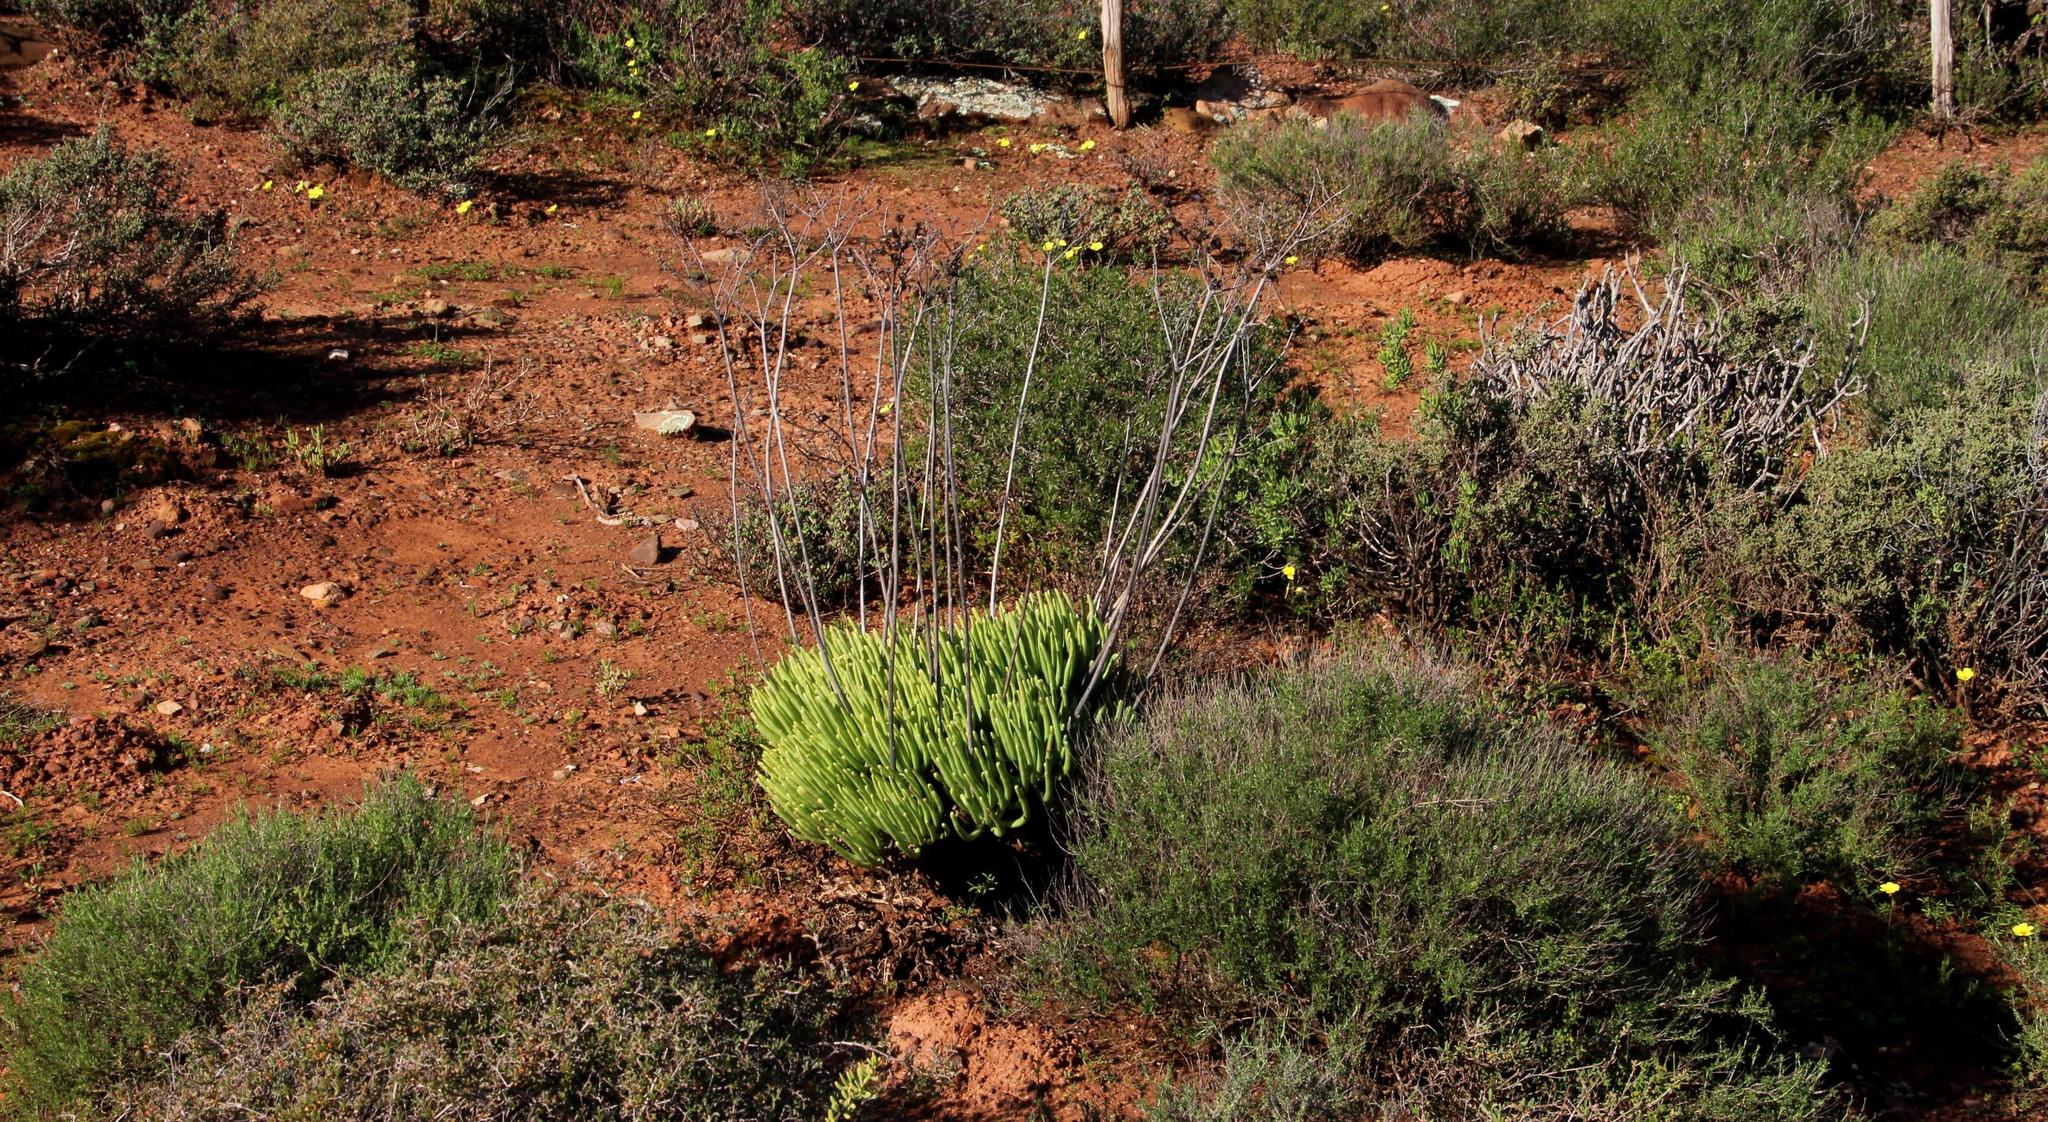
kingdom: Plantae
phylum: Tracheophyta
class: Magnoliopsida
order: Saxifragales
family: Crassulaceae
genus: Tylecodon
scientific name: Tylecodon wallichii
